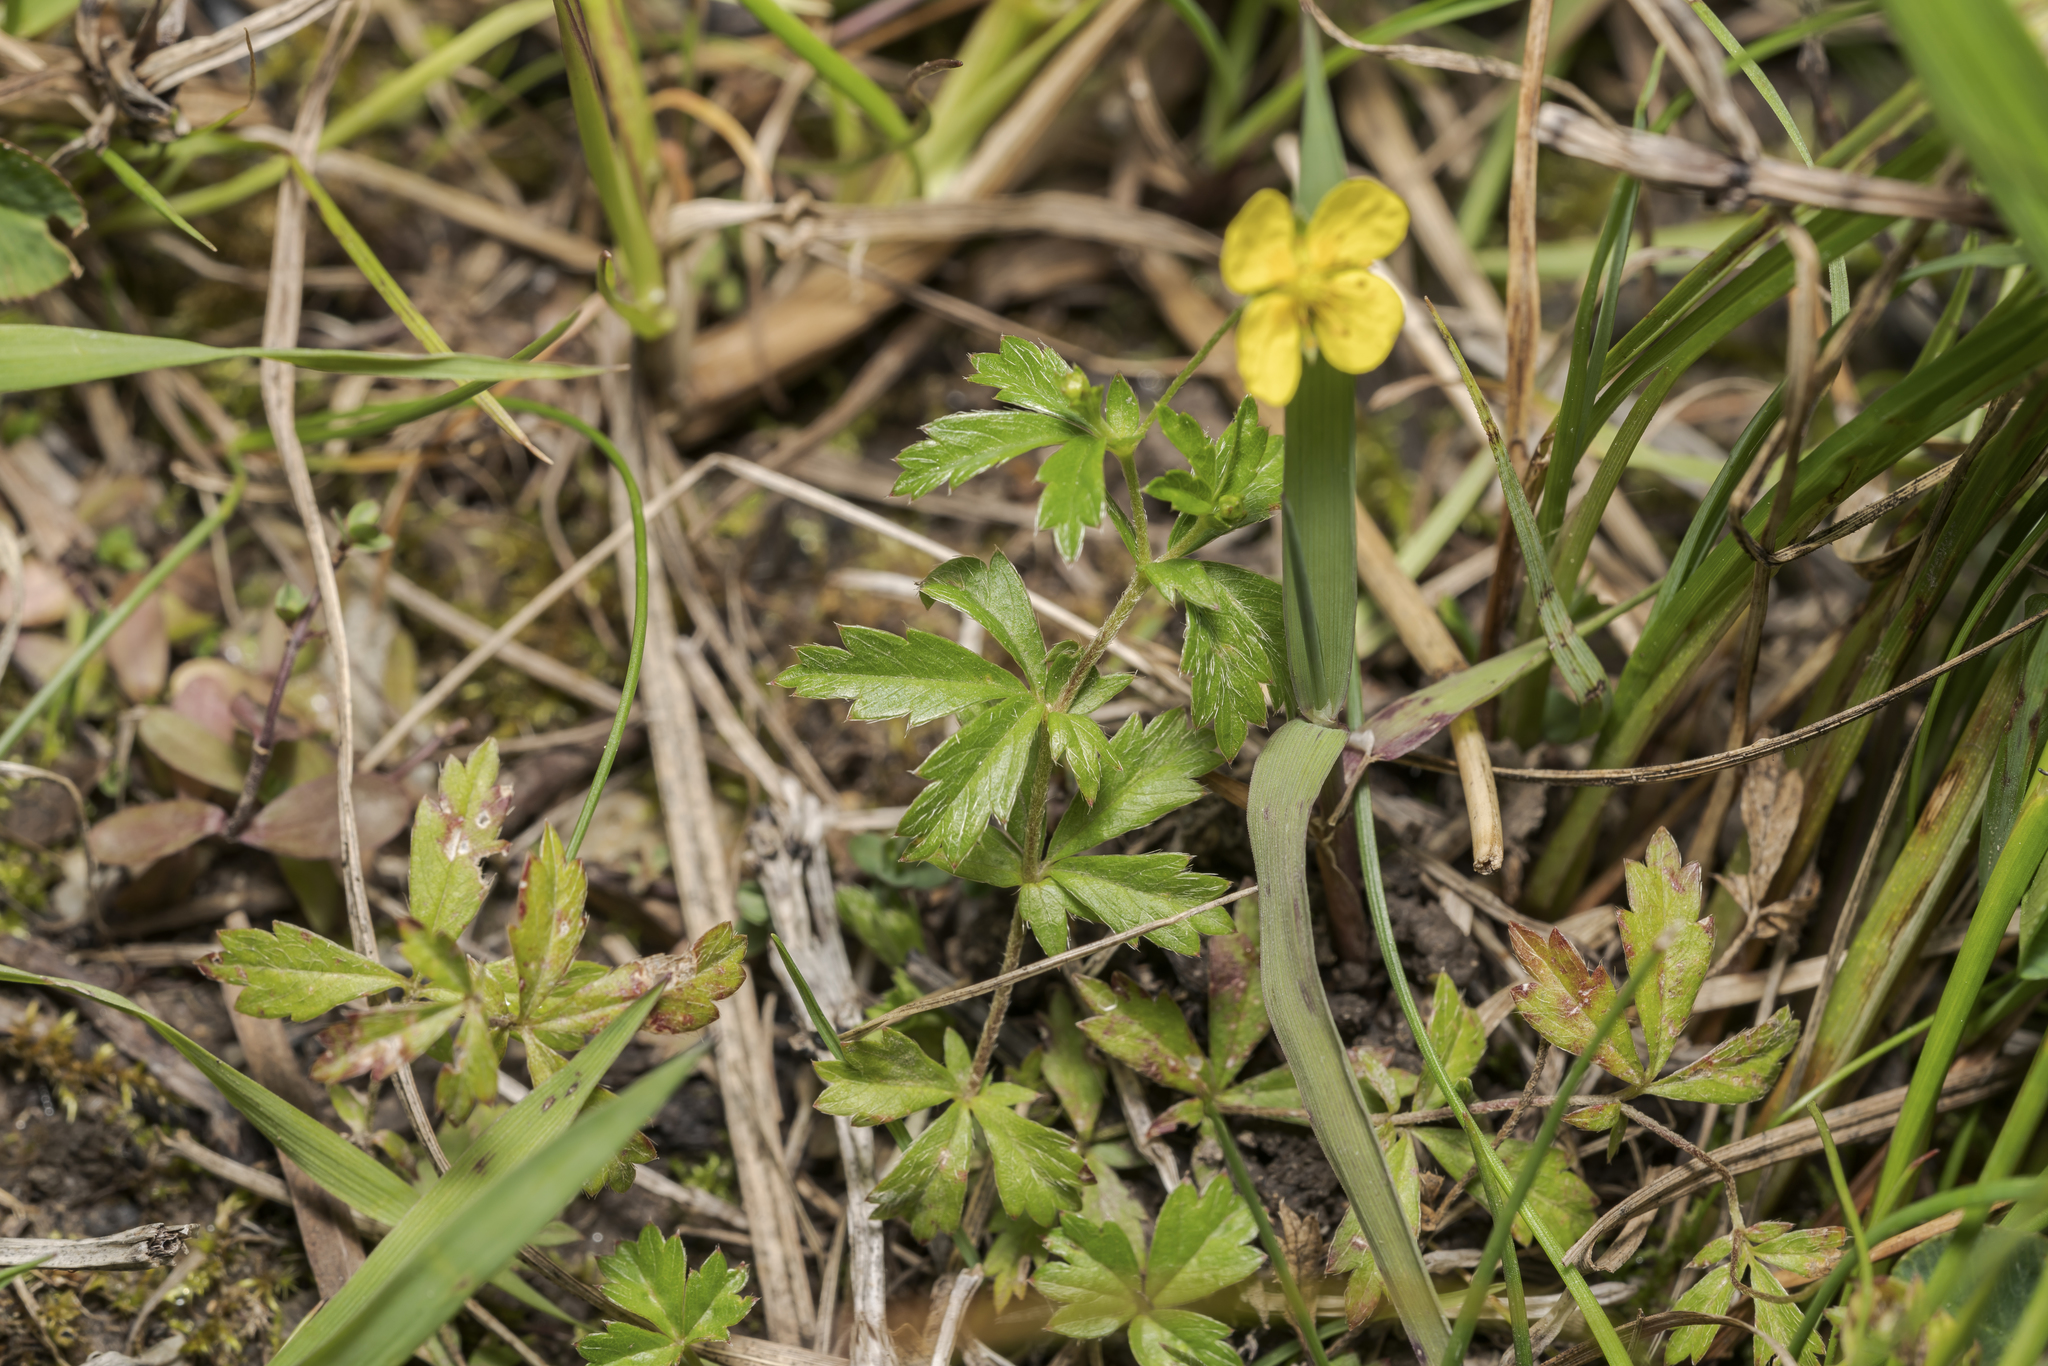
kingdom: Plantae
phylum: Tracheophyta
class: Magnoliopsida
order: Rosales
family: Rosaceae
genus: Potentilla
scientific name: Potentilla erecta
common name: Tormentil
